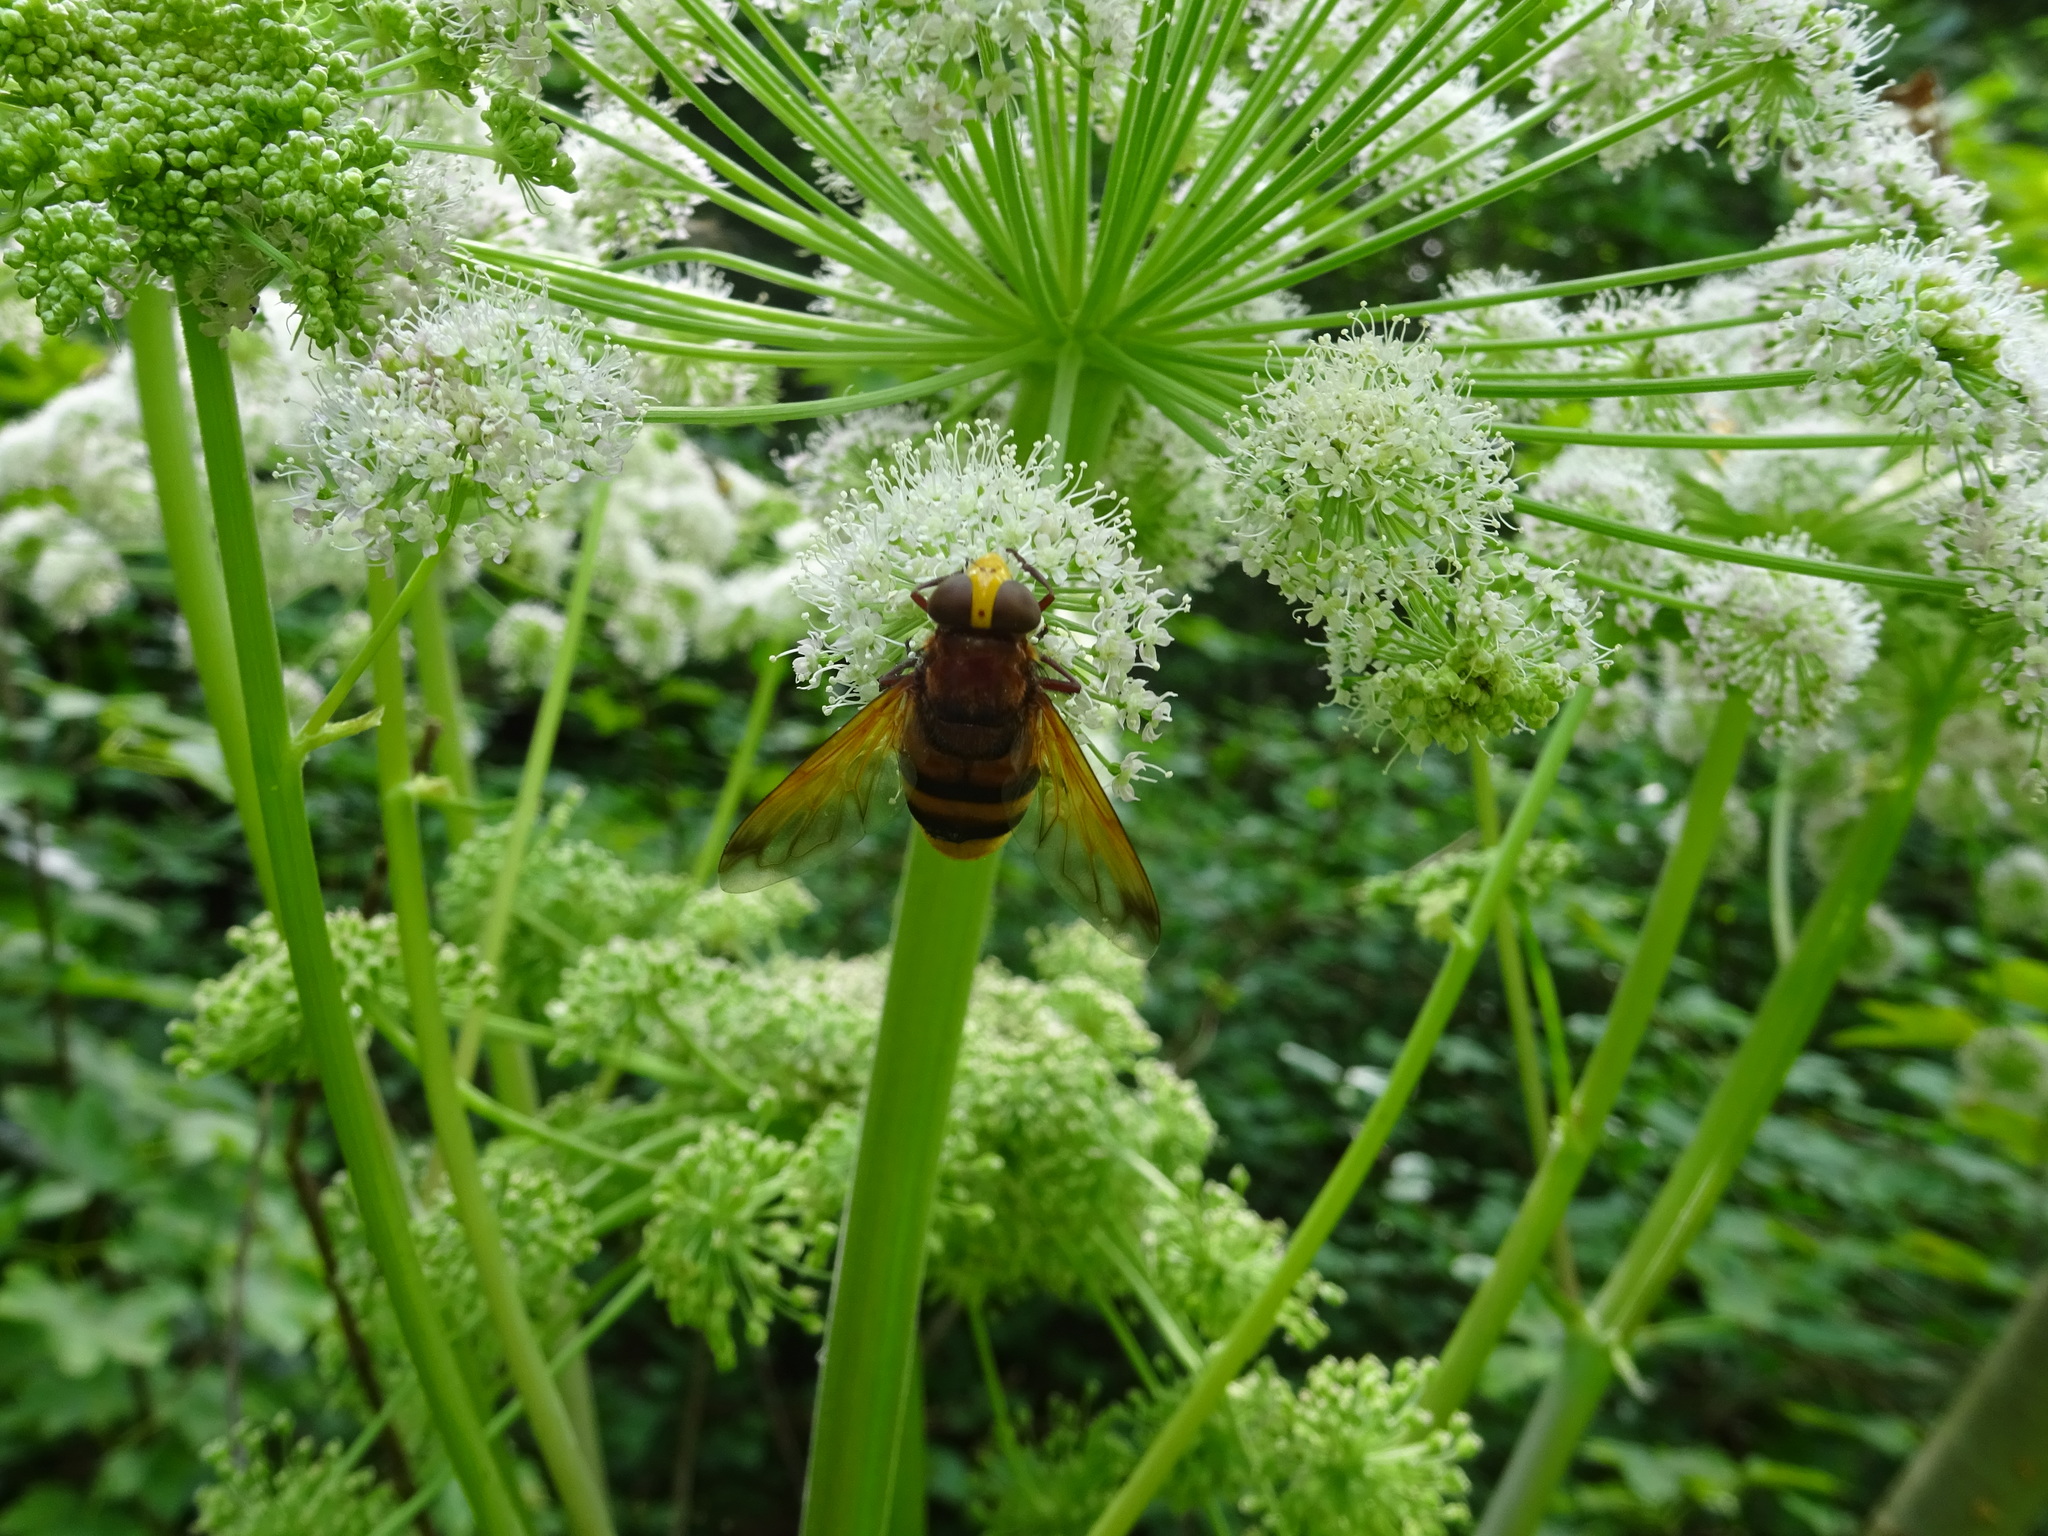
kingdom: Animalia
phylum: Arthropoda
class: Insecta
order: Diptera
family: Syrphidae
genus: Volucella
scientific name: Volucella zonaria
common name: Hornet hoverfly
